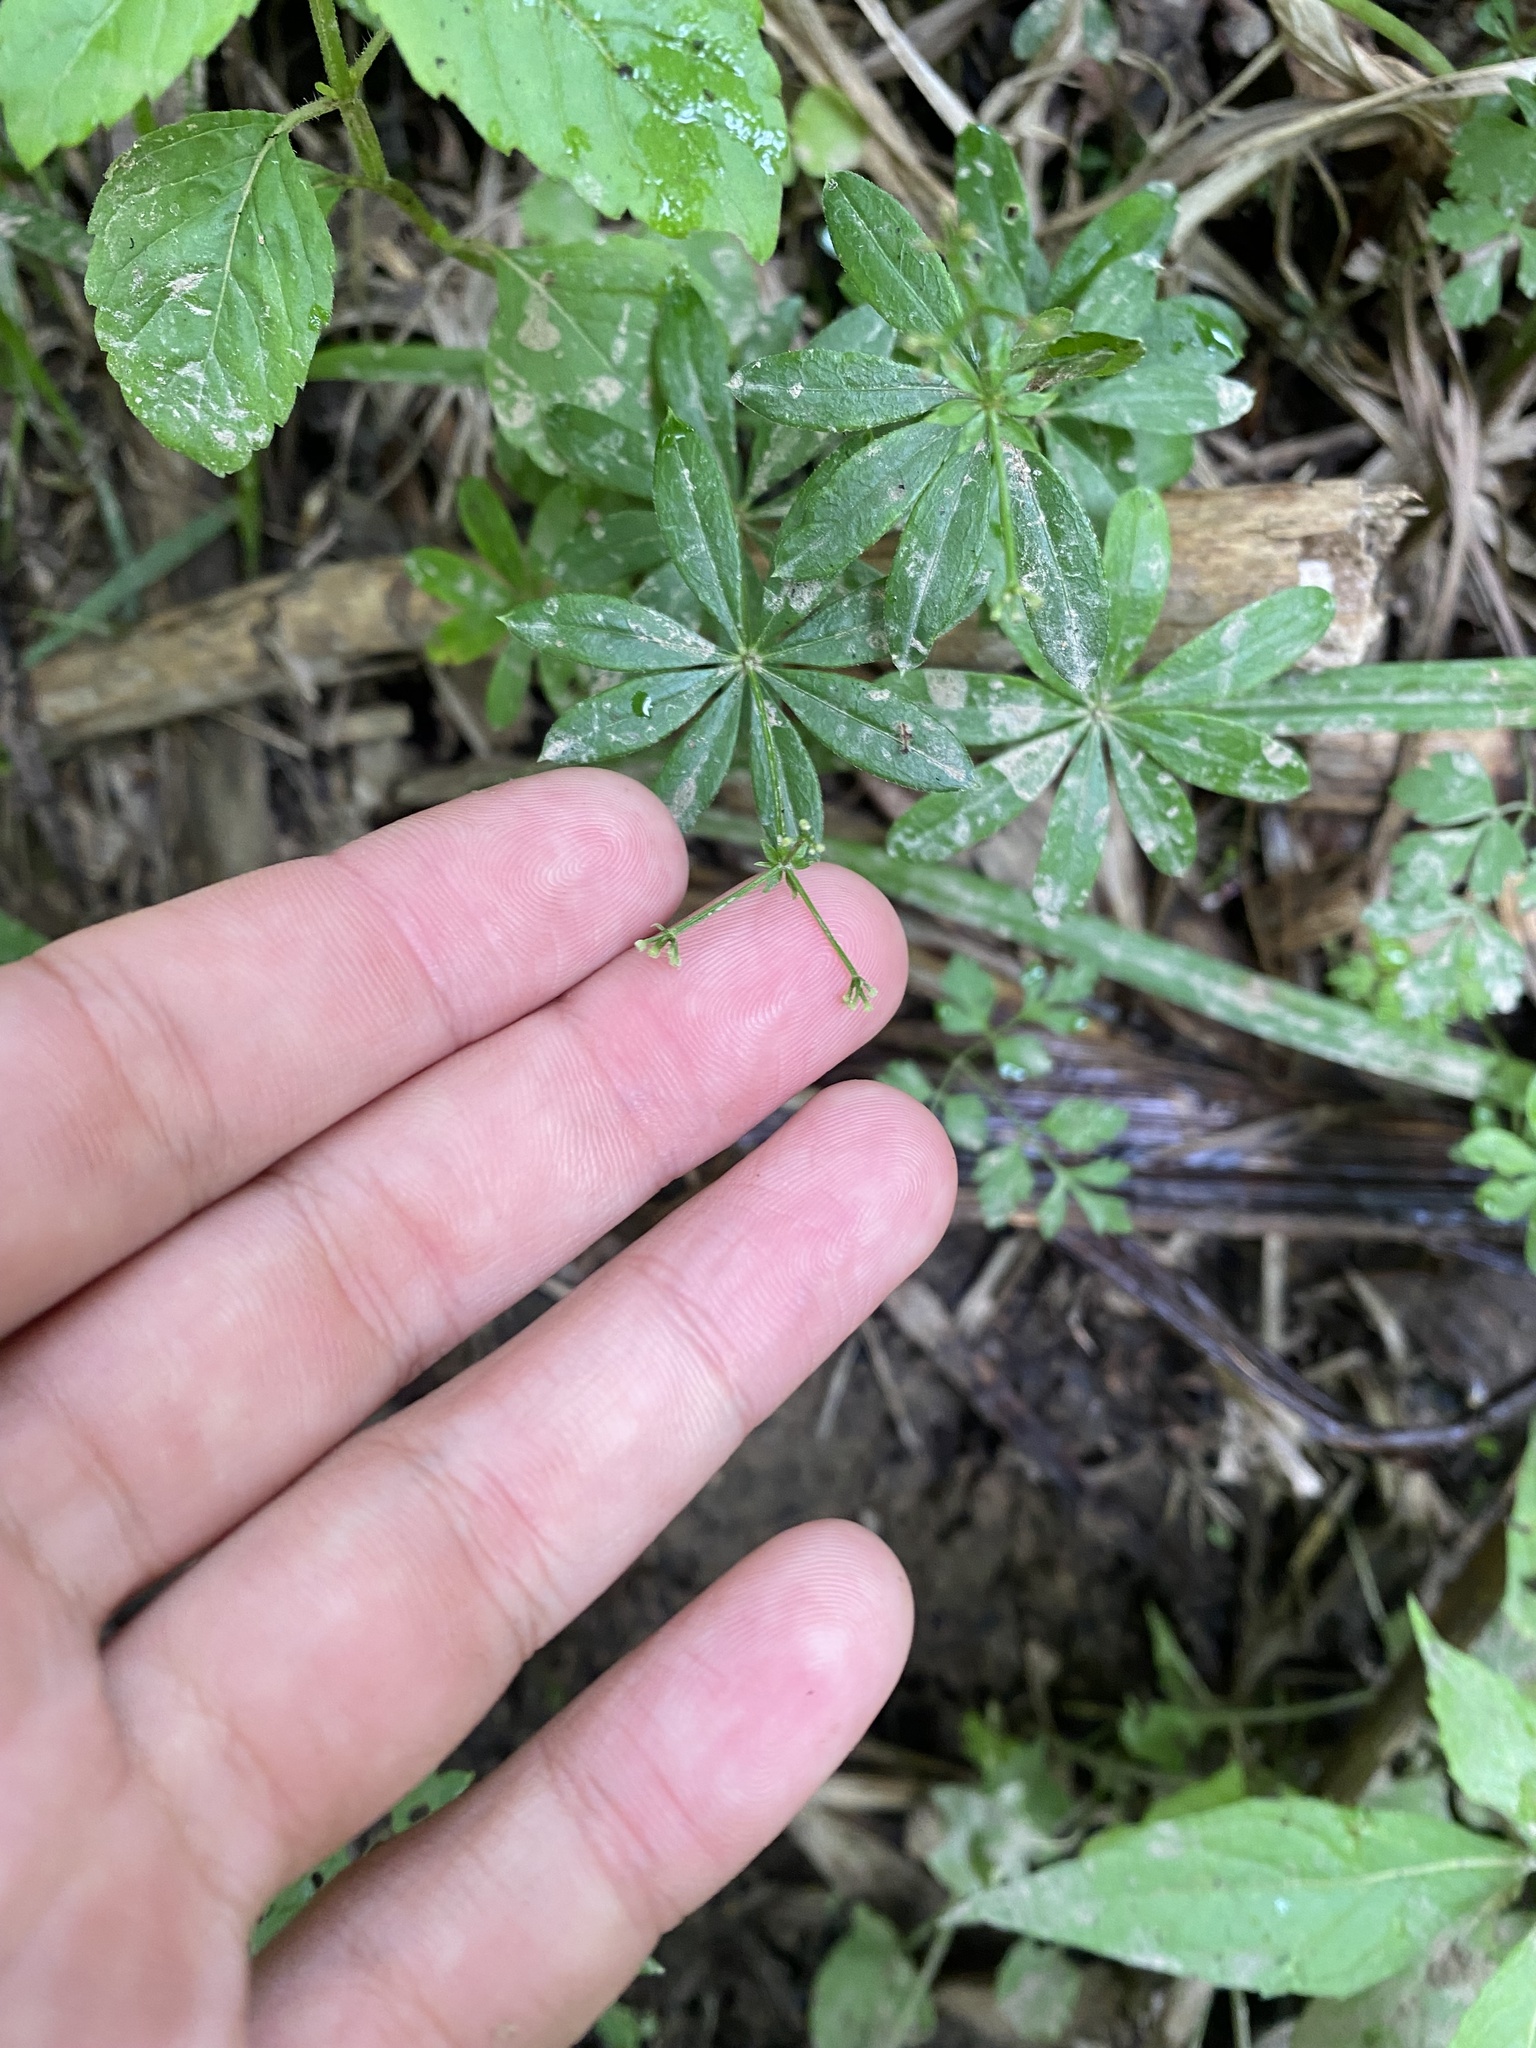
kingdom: Plantae
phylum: Tracheophyta
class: Magnoliopsida
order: Gentianales
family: Rubiaceae
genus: Galium
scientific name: Galium odoratum
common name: Sweet woodruff
